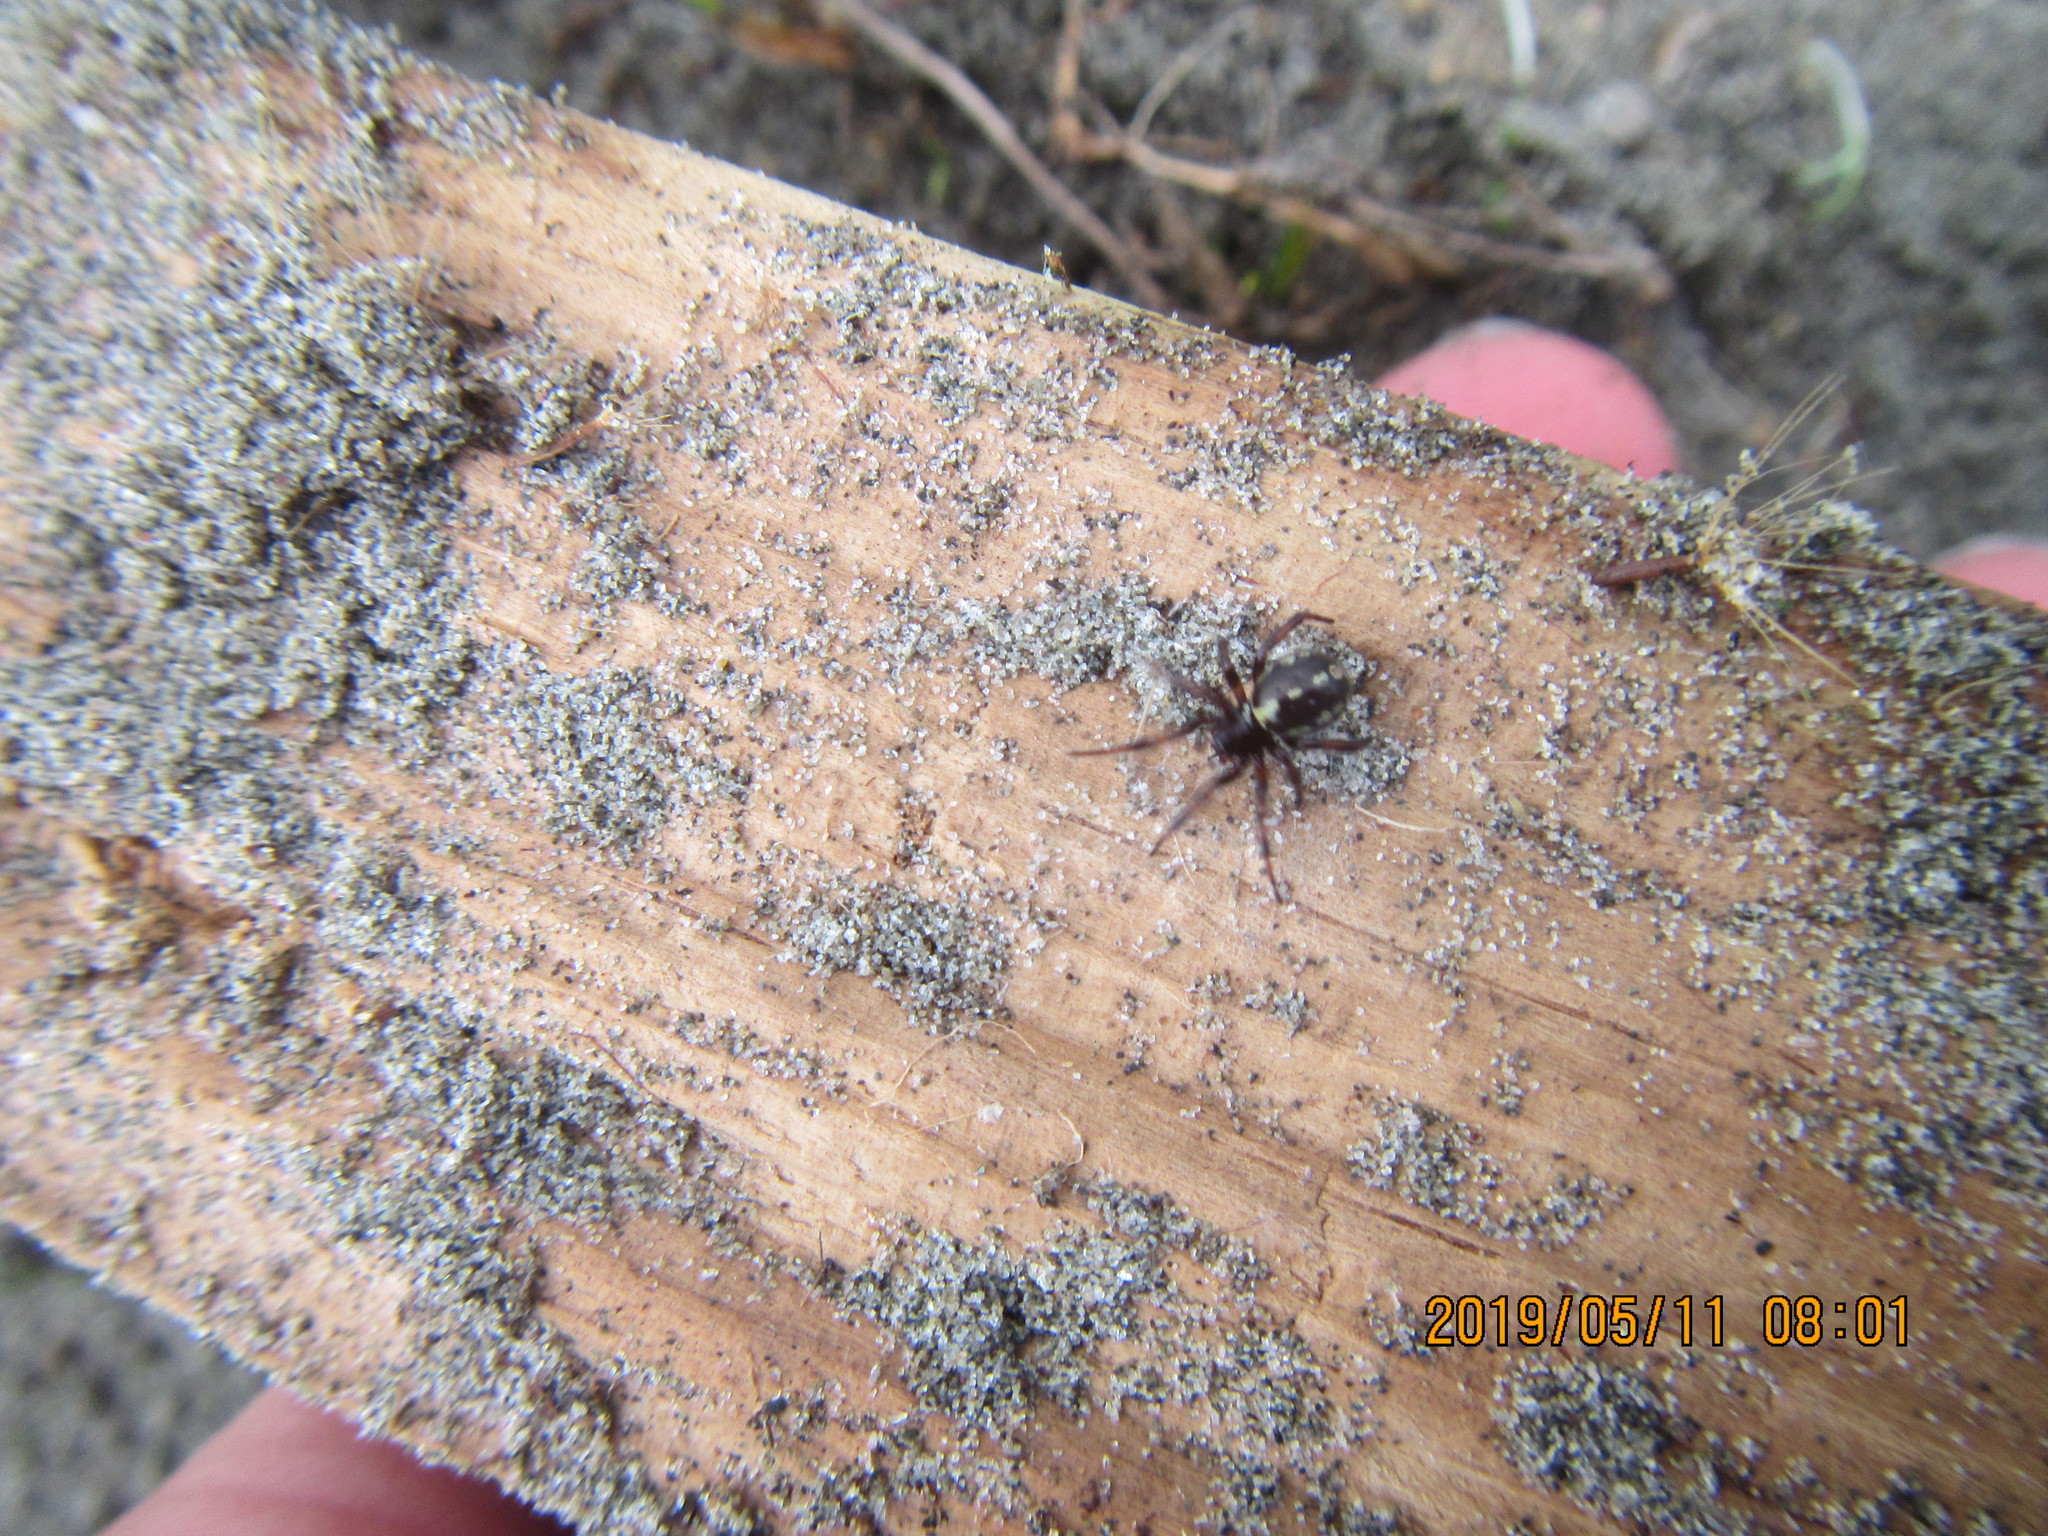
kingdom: Animalia
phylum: Arthropoda
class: Arachnida
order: Araneae
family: Theridiidae
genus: Steatoda
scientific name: Steatoda lepida
